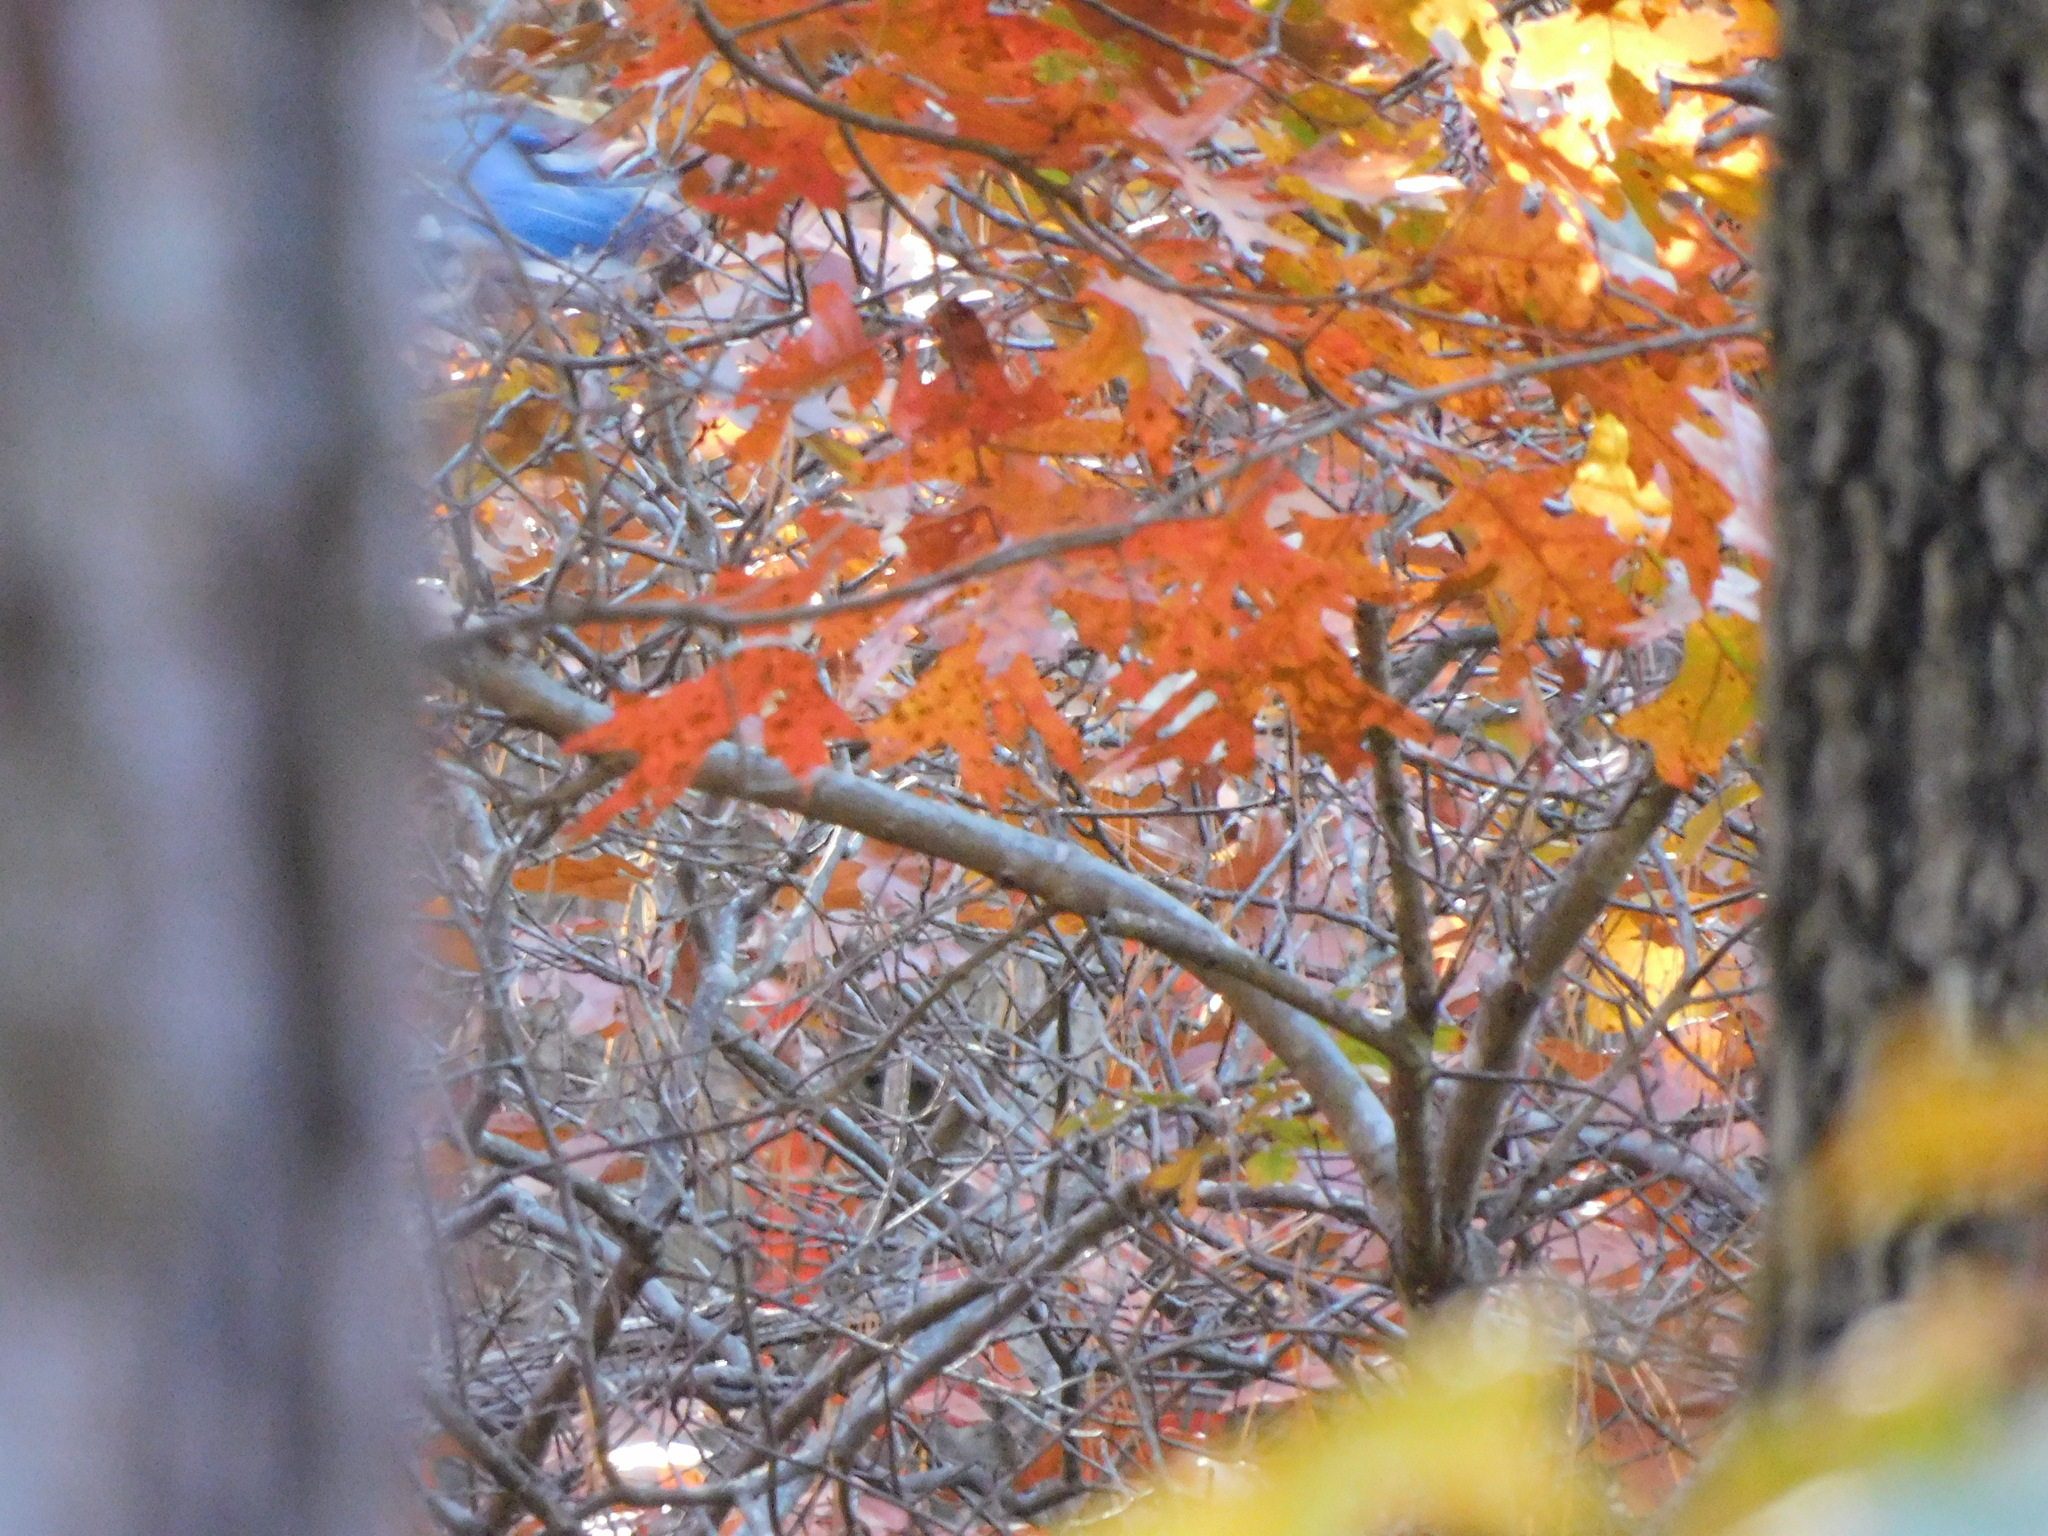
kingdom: Animalia
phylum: Chordata
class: Aves
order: Passeriformes
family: Corvidae
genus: Cyanocitta
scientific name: Cyanocitta cristata
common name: Blue jay
